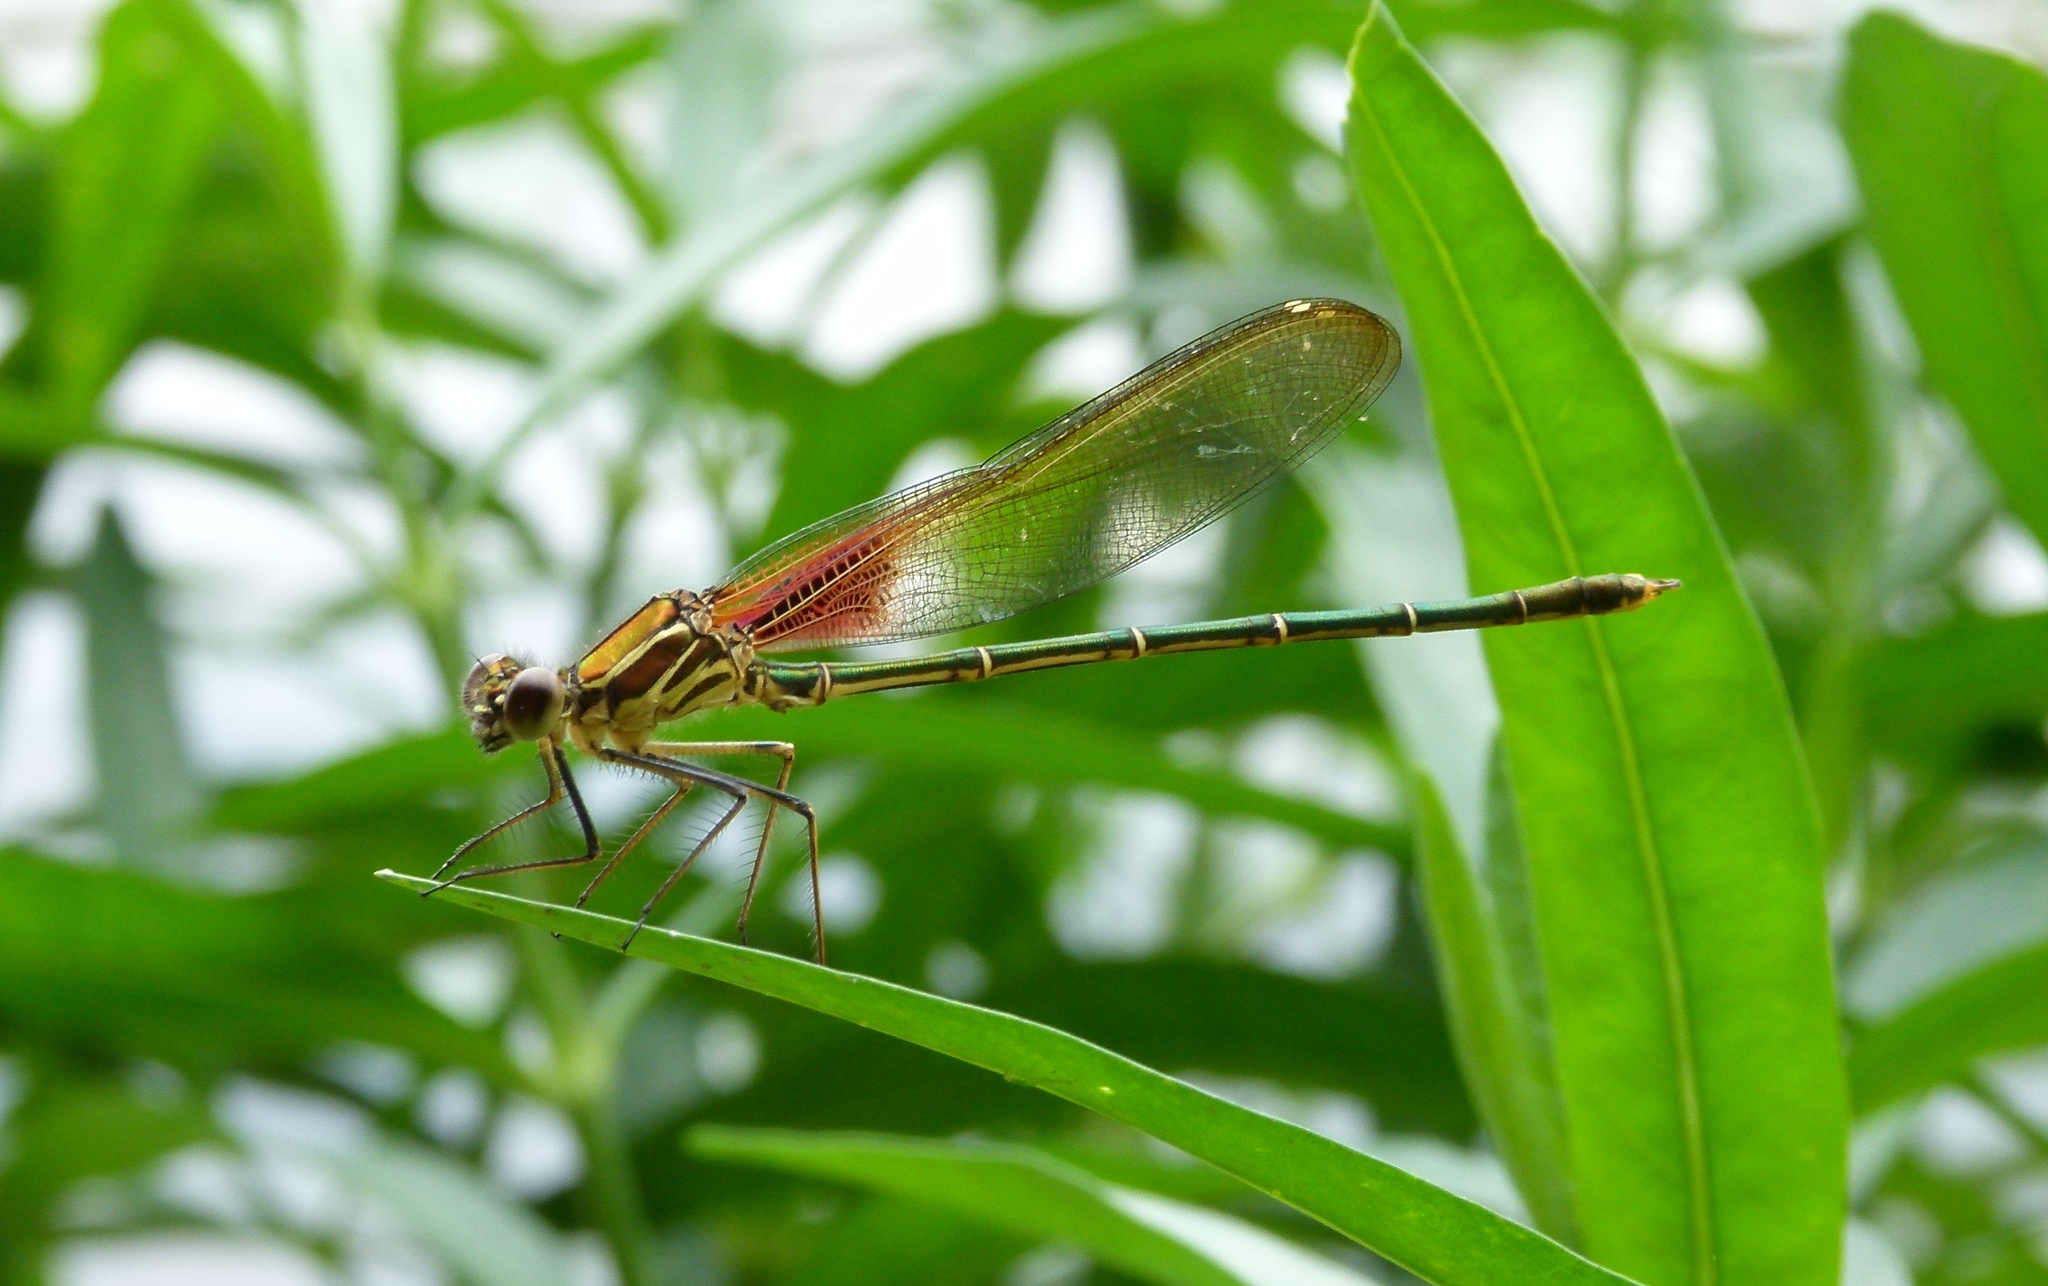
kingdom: Animalia
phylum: Arthropoda
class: Insecta
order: Odonata
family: Calopterygidae
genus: Hetaerina
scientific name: Hetaerina americana
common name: American rubyspot
